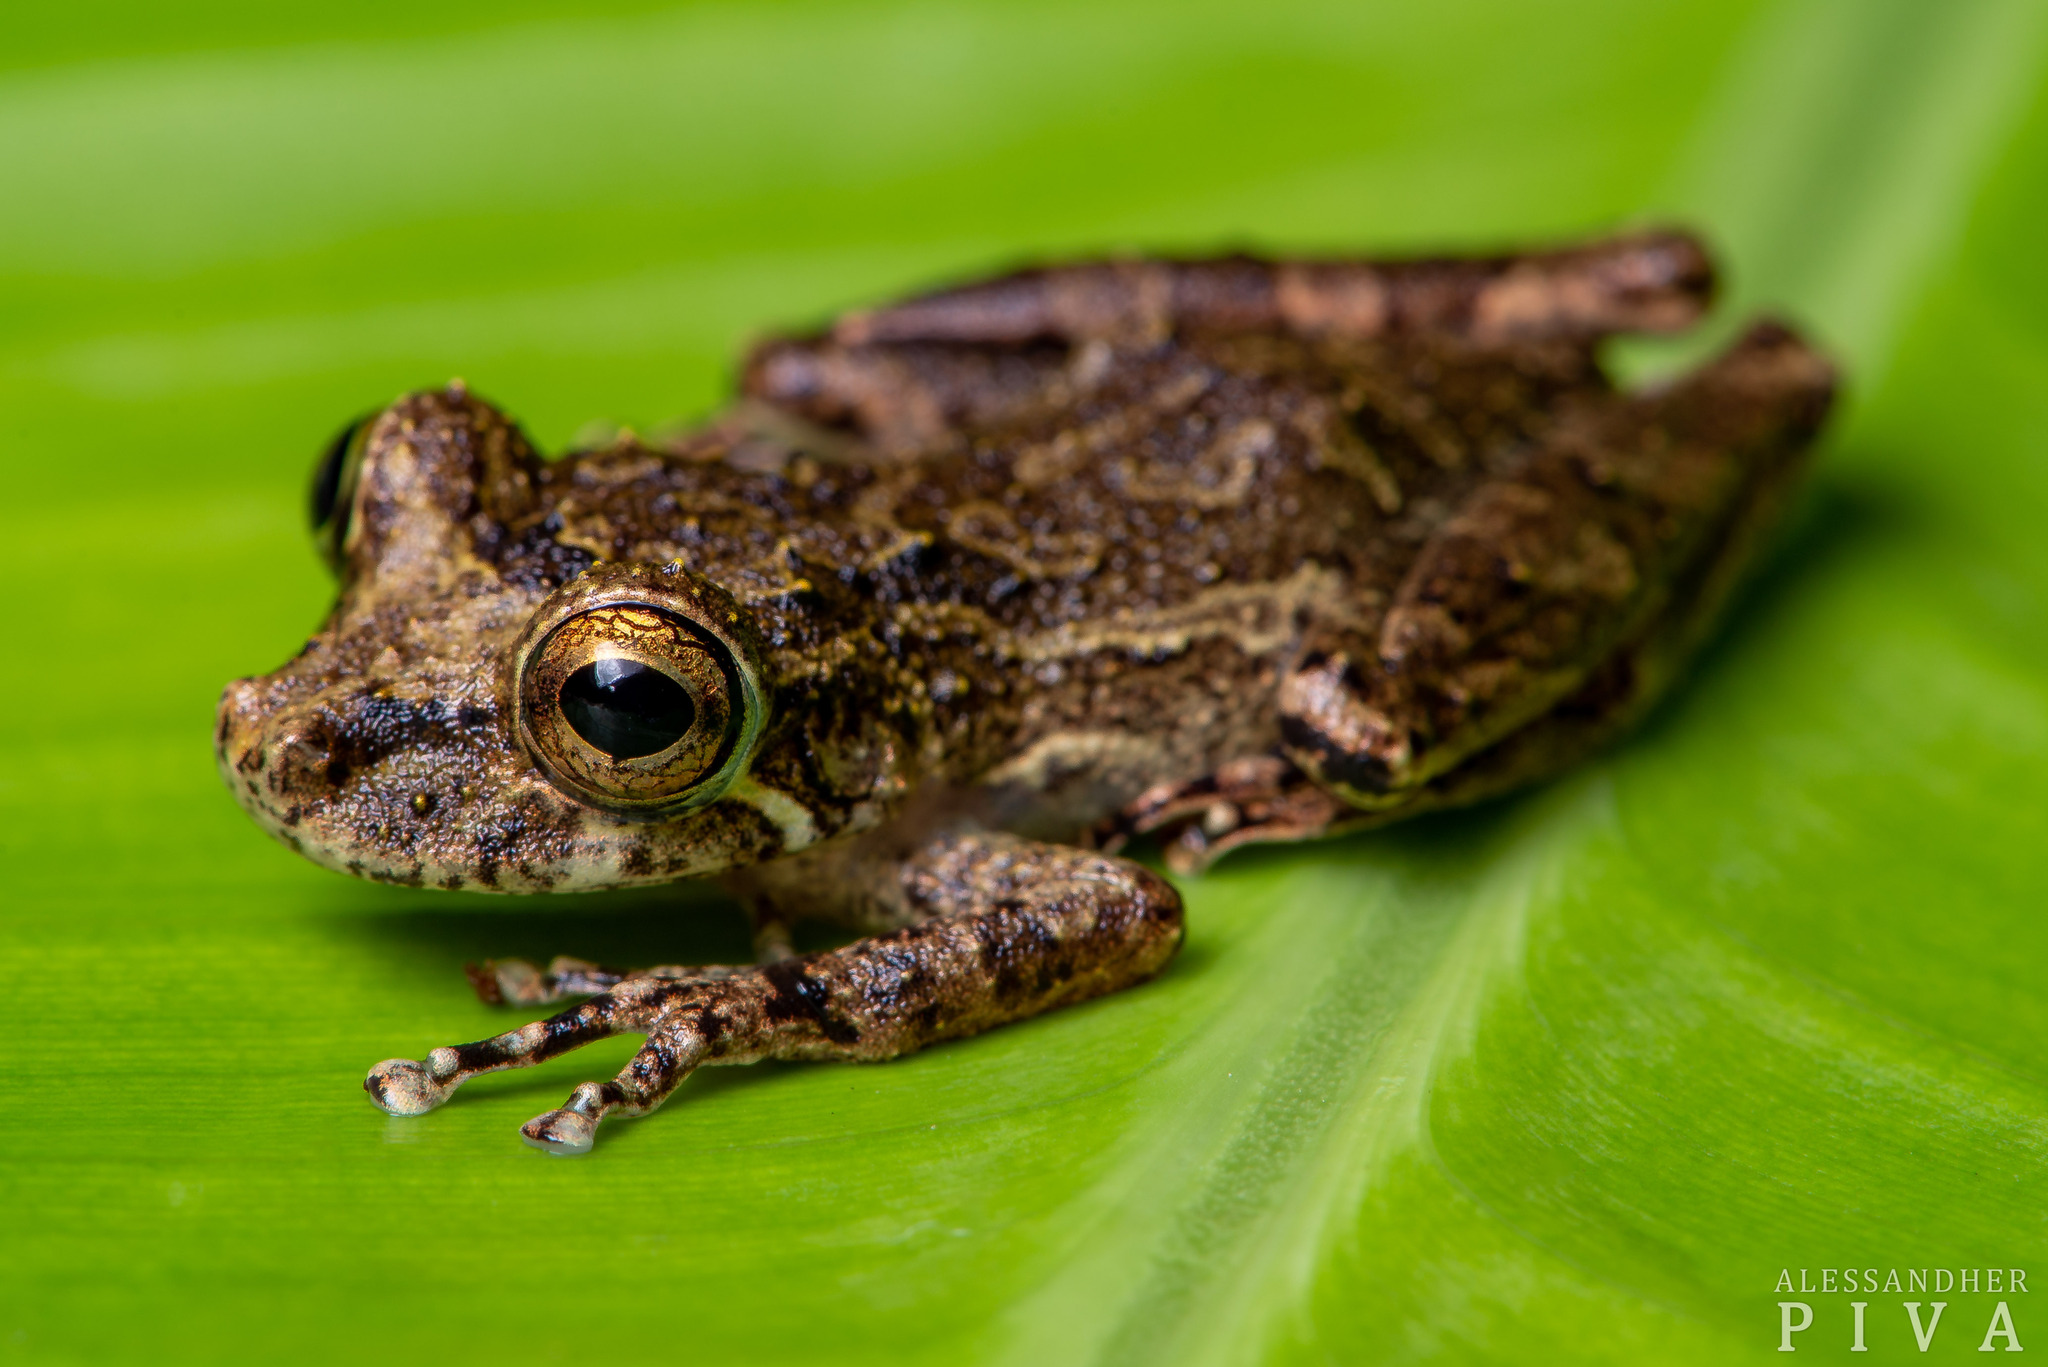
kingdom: Animalia
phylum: Chordata
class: Amphibia
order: Anura
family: Hylidae
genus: Ololygon
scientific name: Ololygon littoralis
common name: Rio verde snouted treefrog
